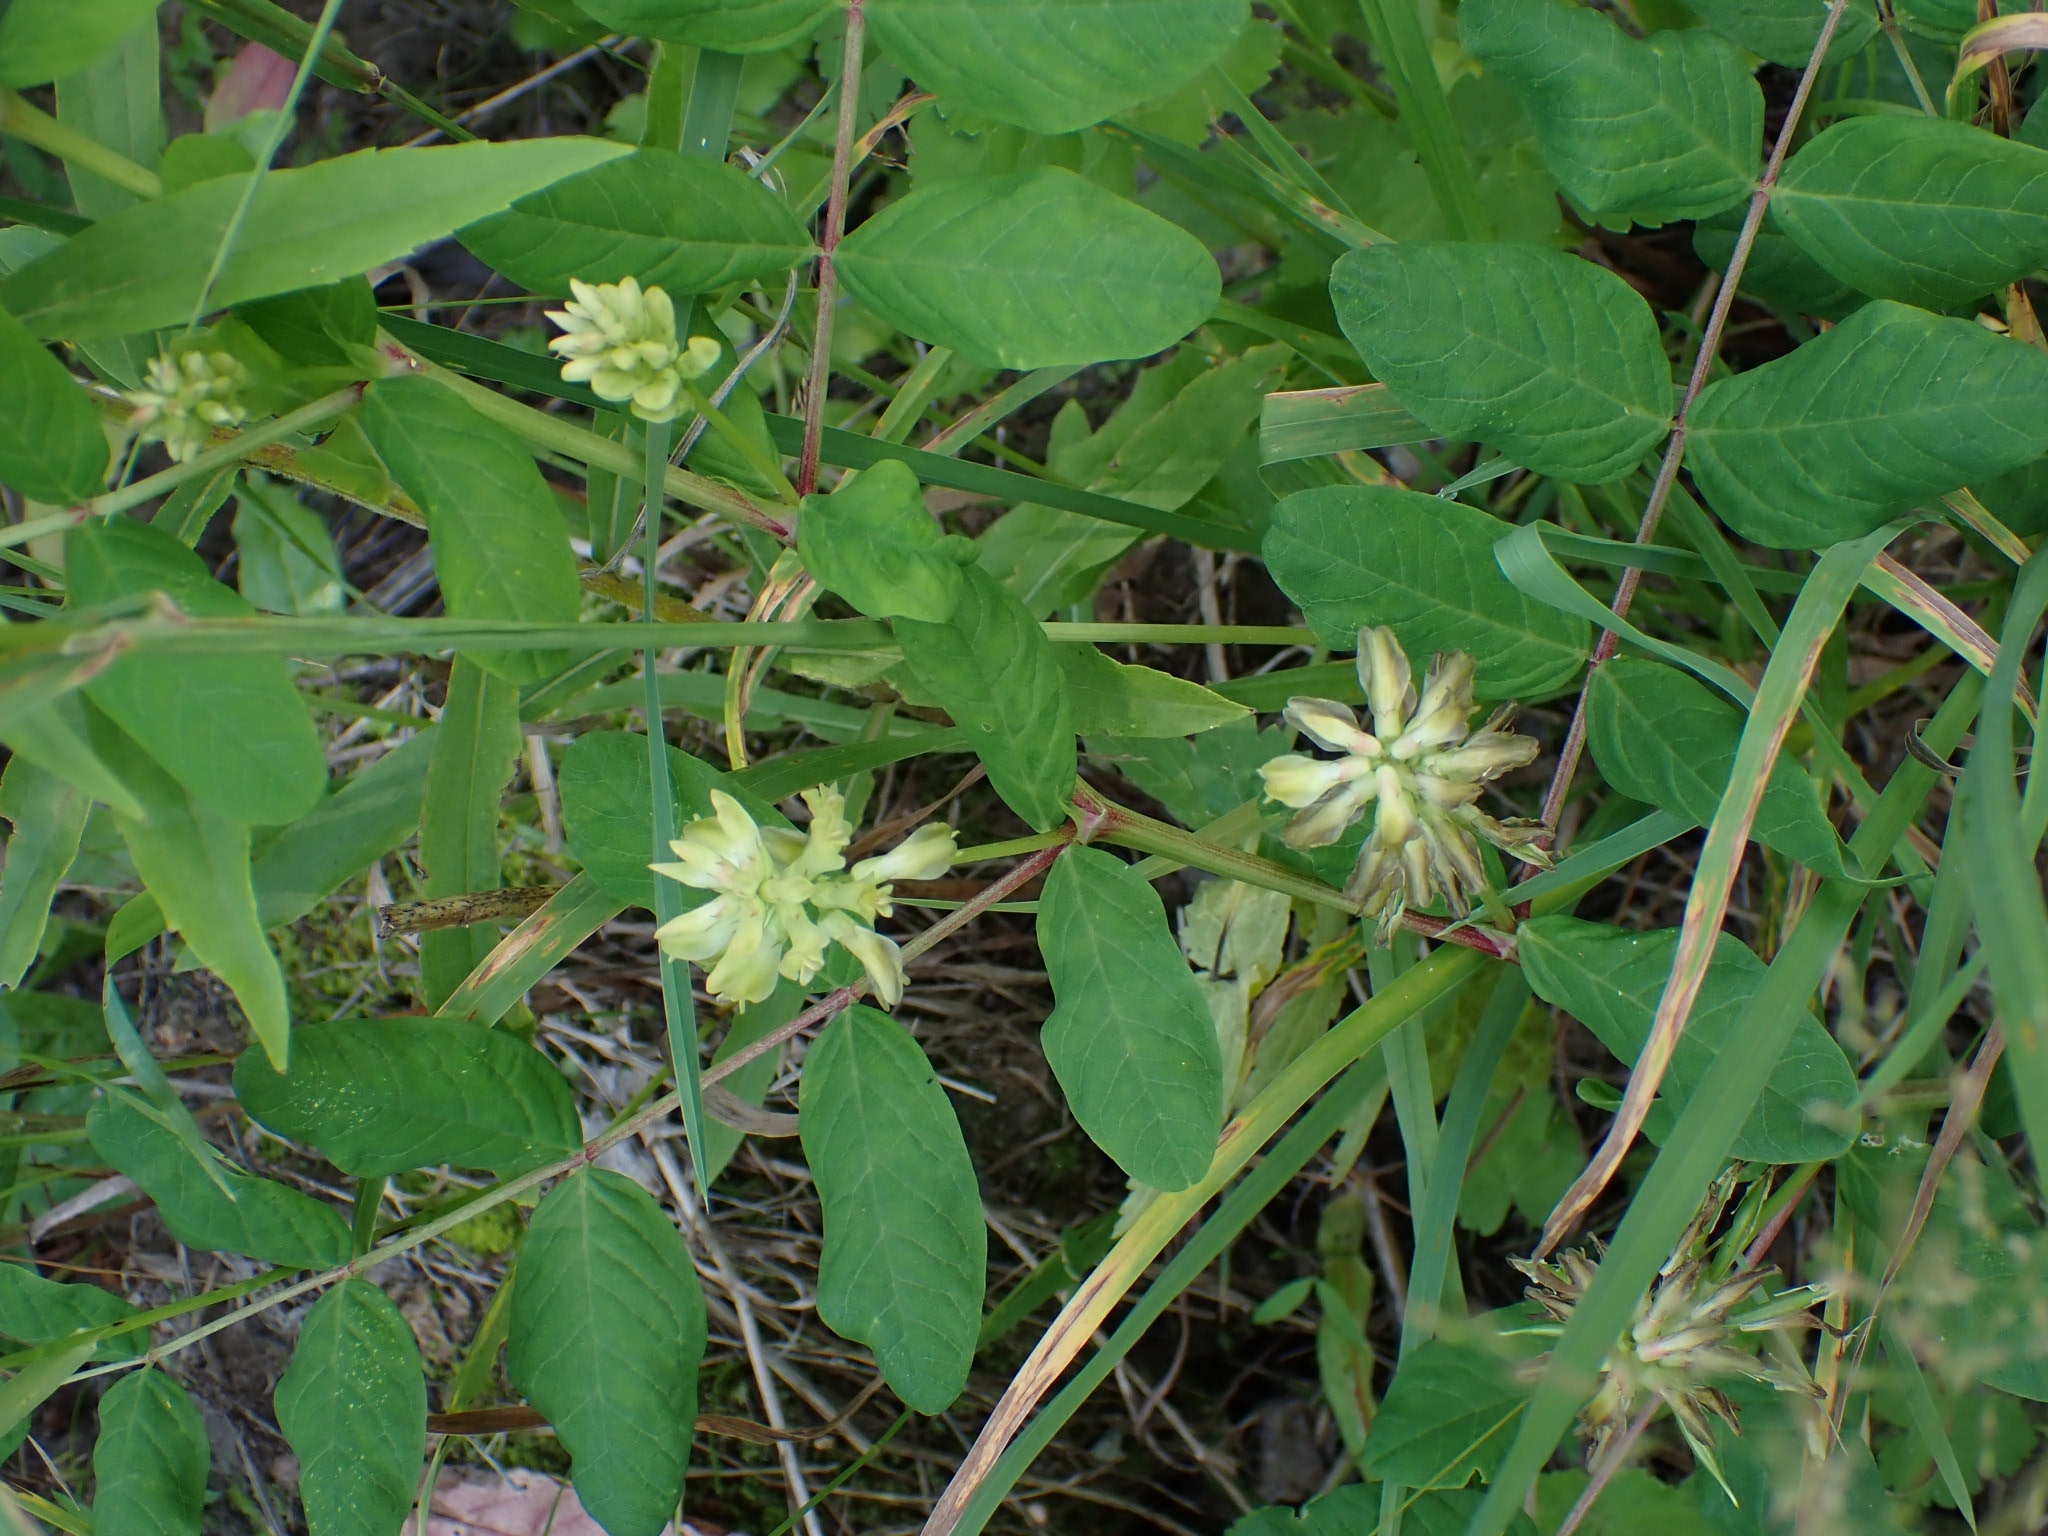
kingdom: Plantae
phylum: Tracheophyta
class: Magnoliopsida
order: Fabales
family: Fabaceae
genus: Astragalus
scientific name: Astragalus glycyphyllos
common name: Wild liquorice
